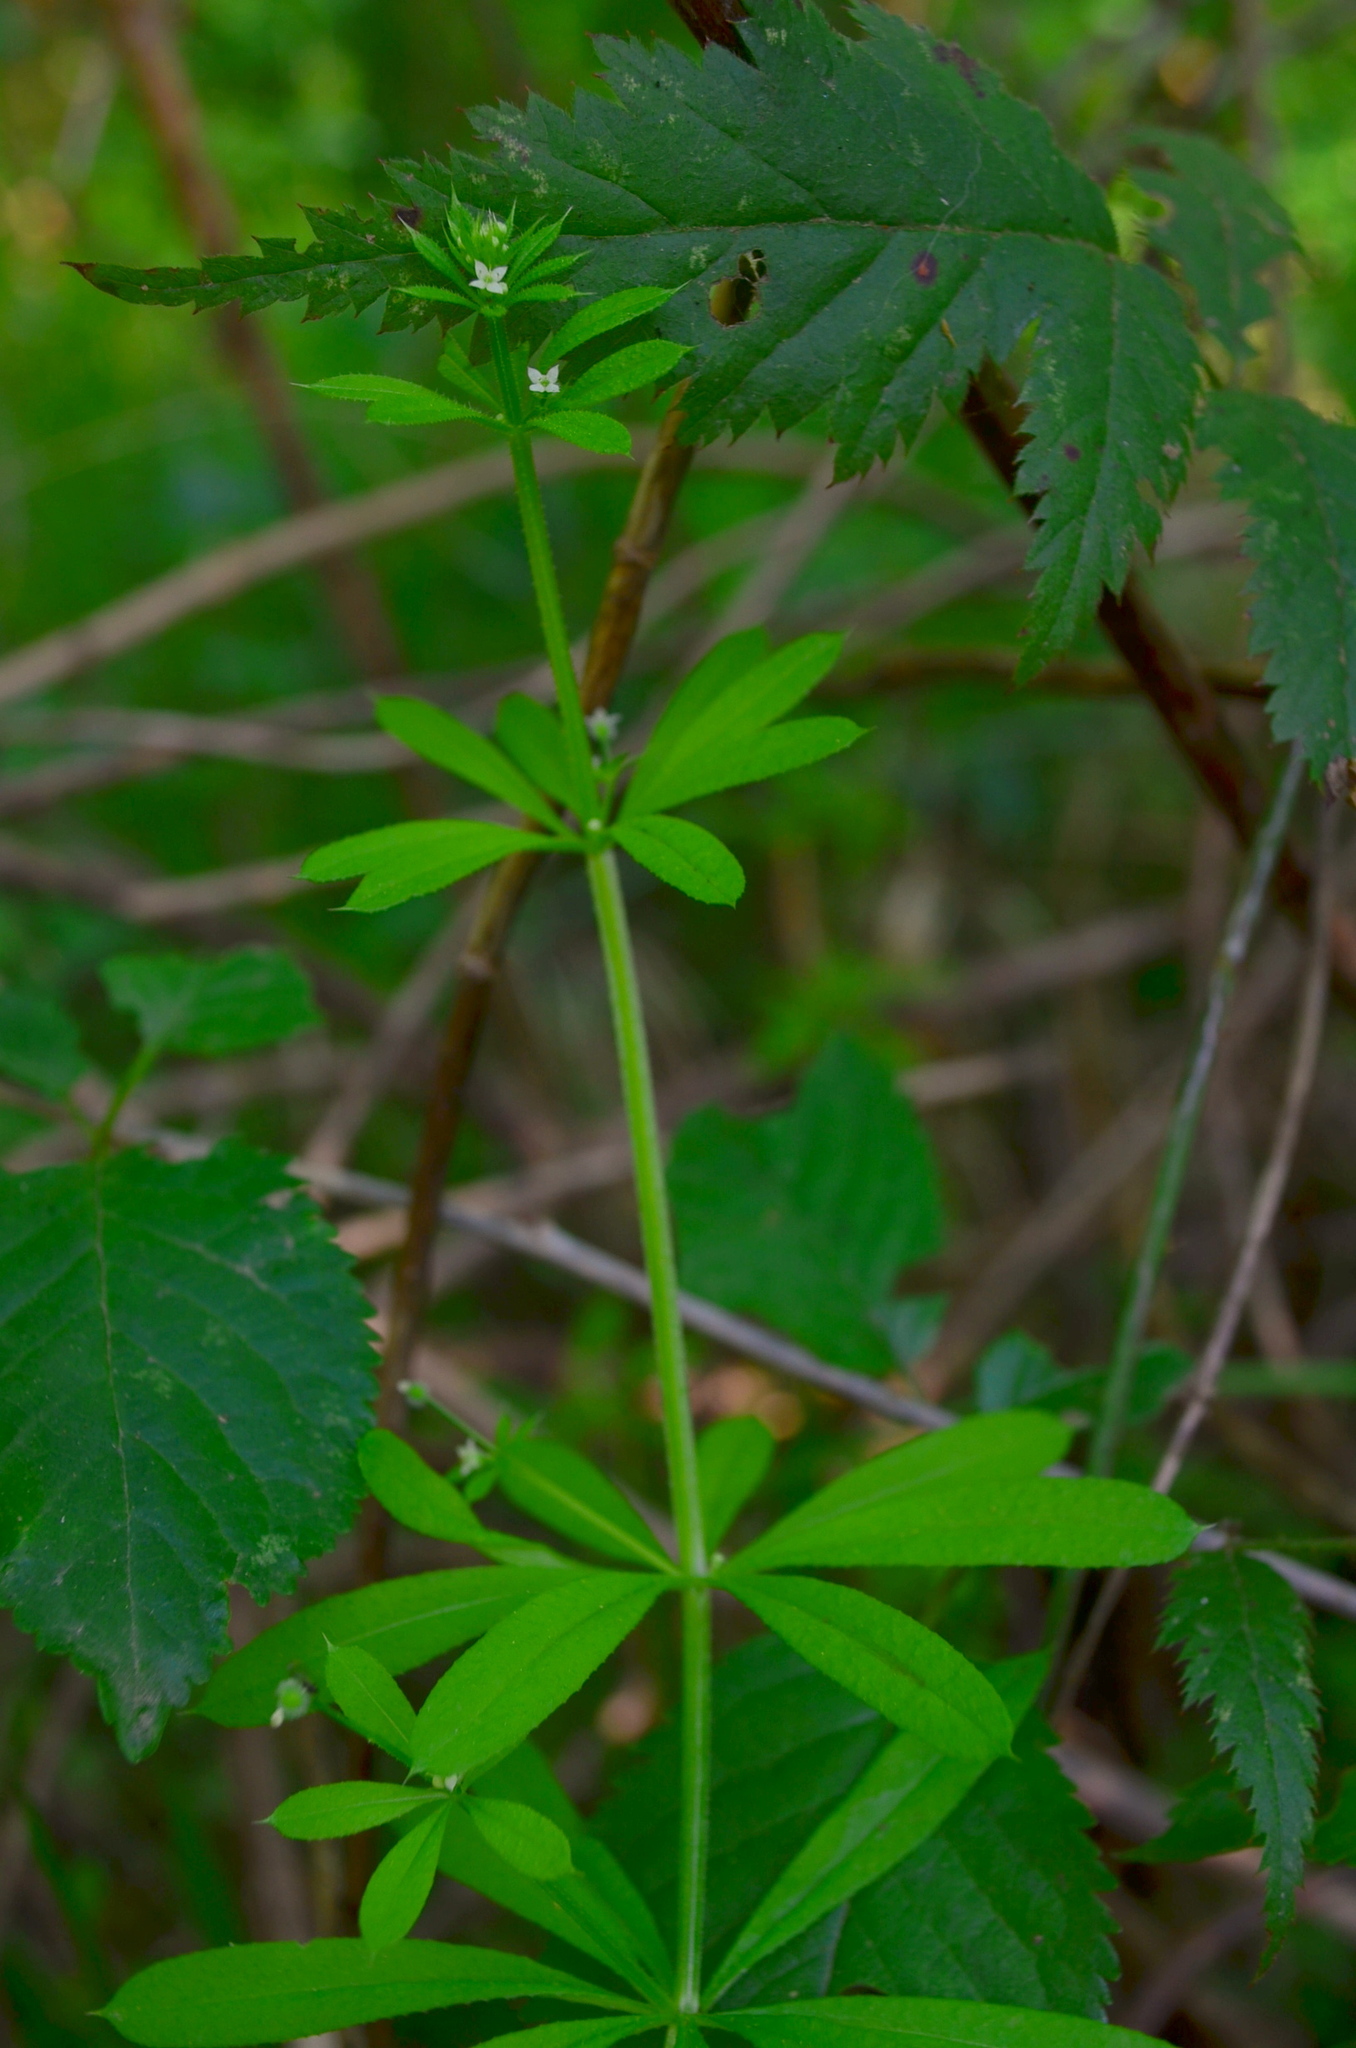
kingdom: Plantae
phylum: Tracheophyta
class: Magnoliopsida
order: Gentianales
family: Rubiaceae
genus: Galium
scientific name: Galium aparine
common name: Cleavers
